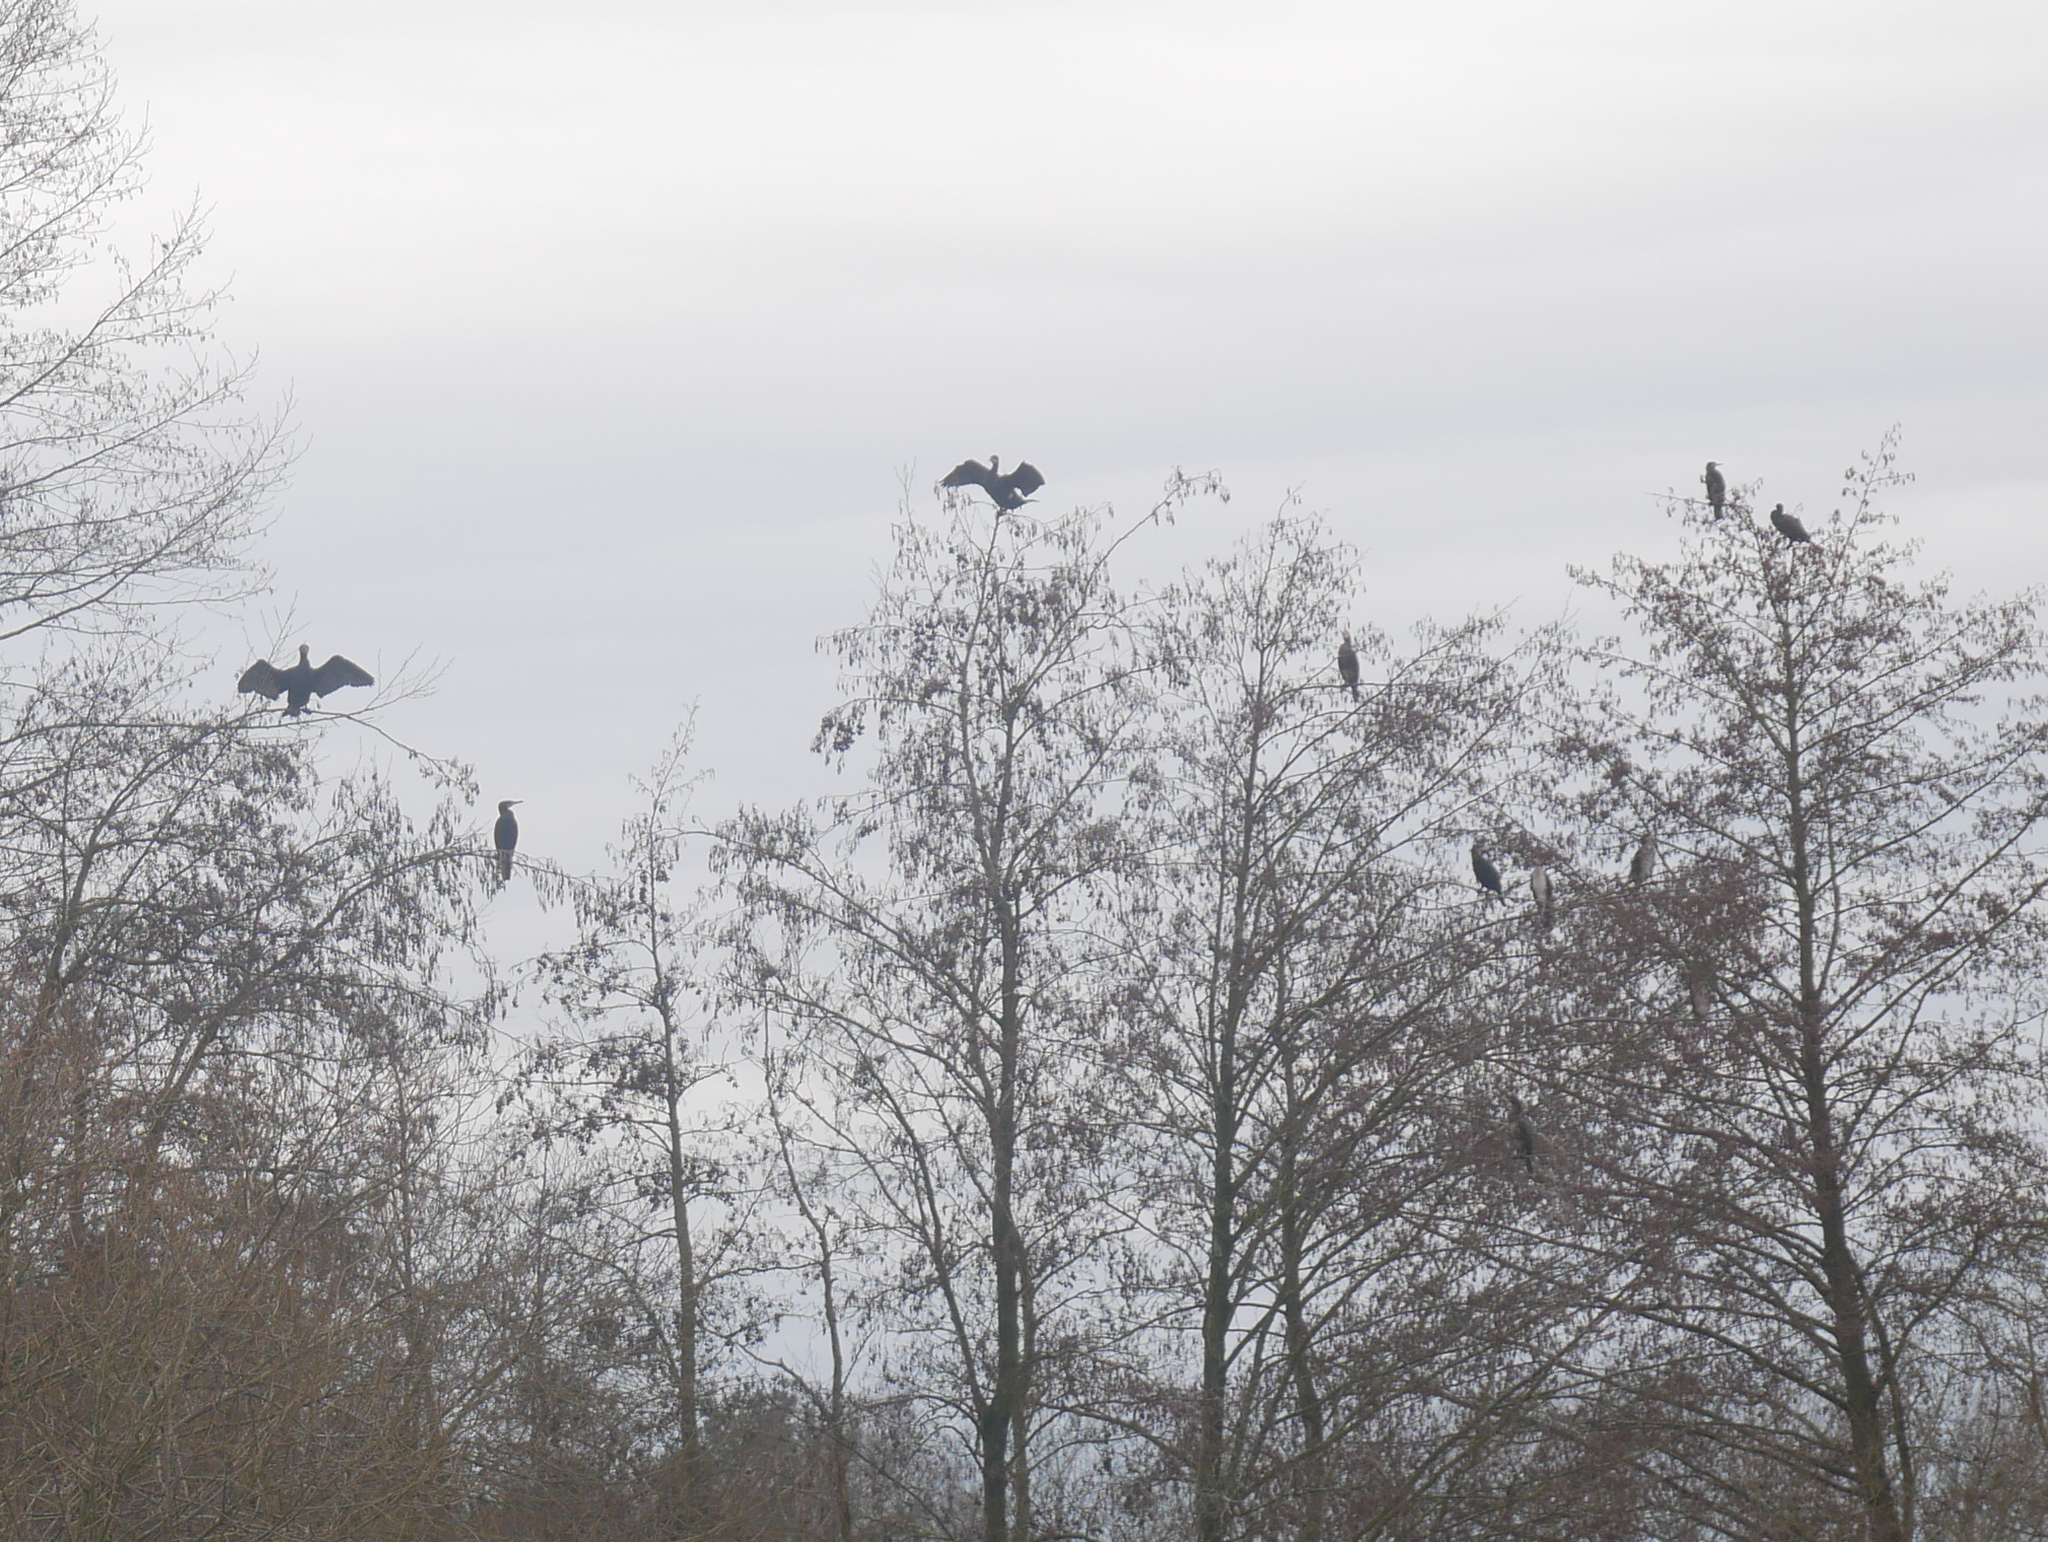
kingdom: Animalia
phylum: Chordata
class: Aves
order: Suliformes
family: Phalacrocoracidae
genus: Phalacrocorax
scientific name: Phalacrocorax carbo
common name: Great cormorant
